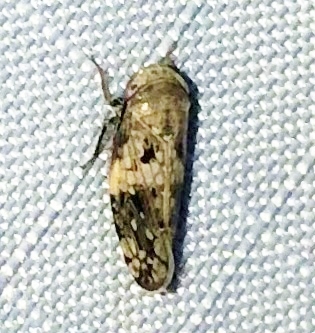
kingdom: Animalia
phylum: Arthropoda
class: Insecta
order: Hemiptera
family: Cicadellidae
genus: Menosoma
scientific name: Menosoma cinctum
